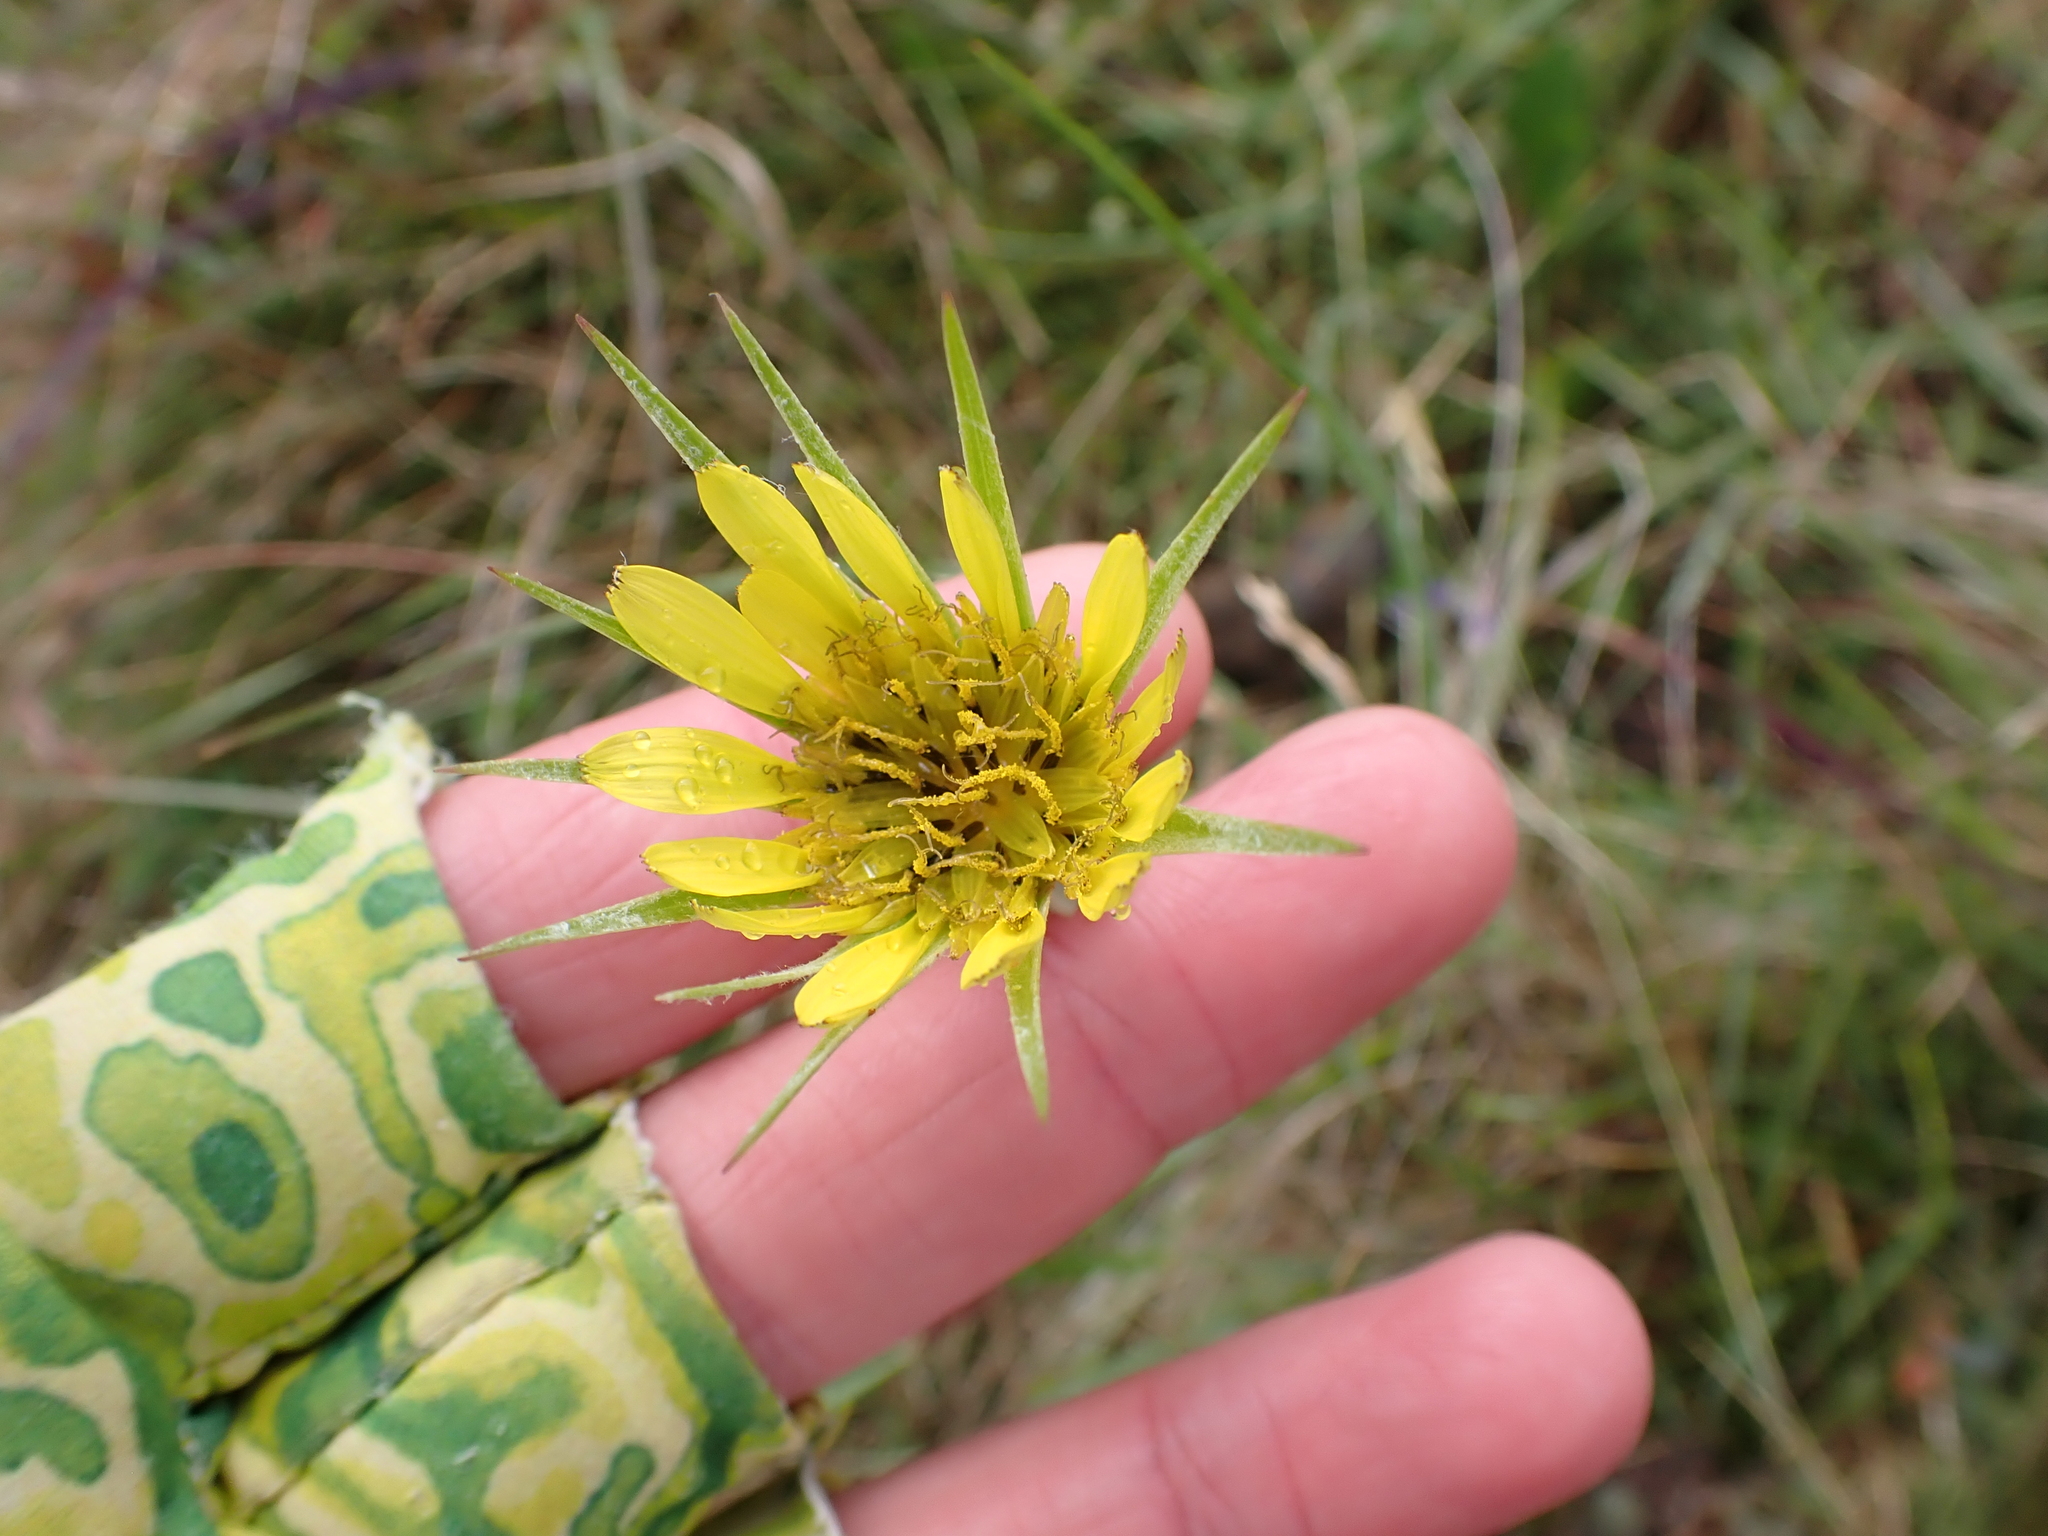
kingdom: Plantae
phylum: Tracheophyta
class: Magnoliopsida
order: Asterales
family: Asteraceae
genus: Tragopogon
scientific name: Tragopogon dubius
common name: Yellow salsify
